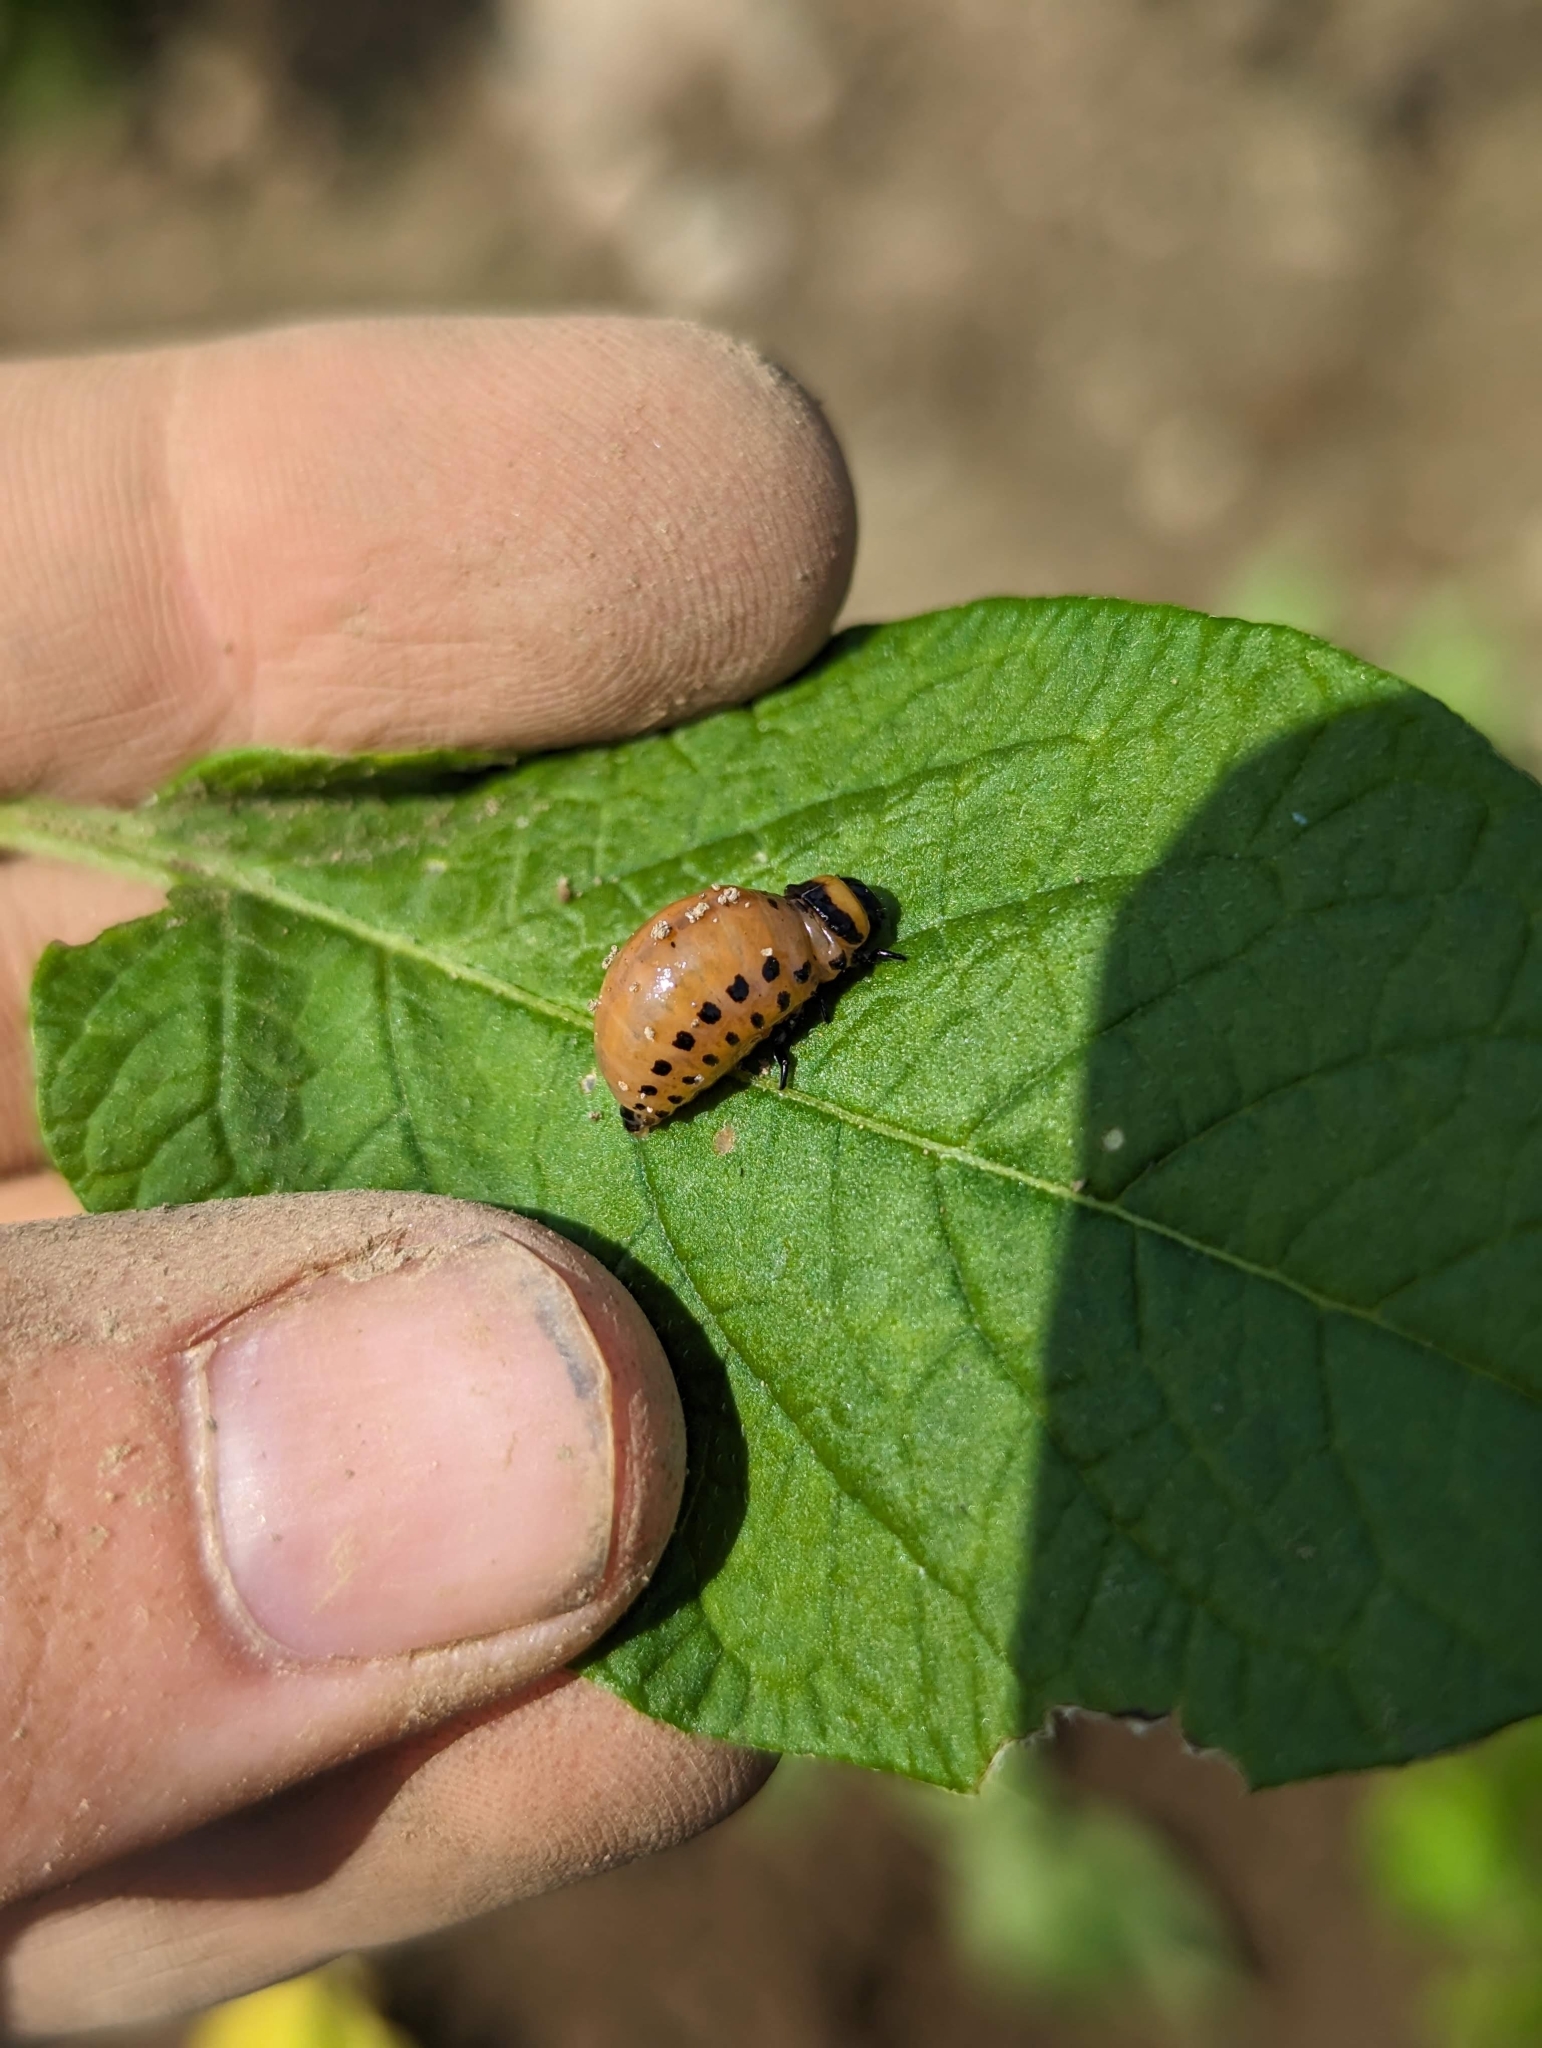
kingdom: Animalia
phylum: Arthropoda
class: Insecta
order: Coleoptera
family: Chrysomelidae
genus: Leptinotarsa
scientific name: Leptinotarsa decemlineata
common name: Colorado potato beetle
